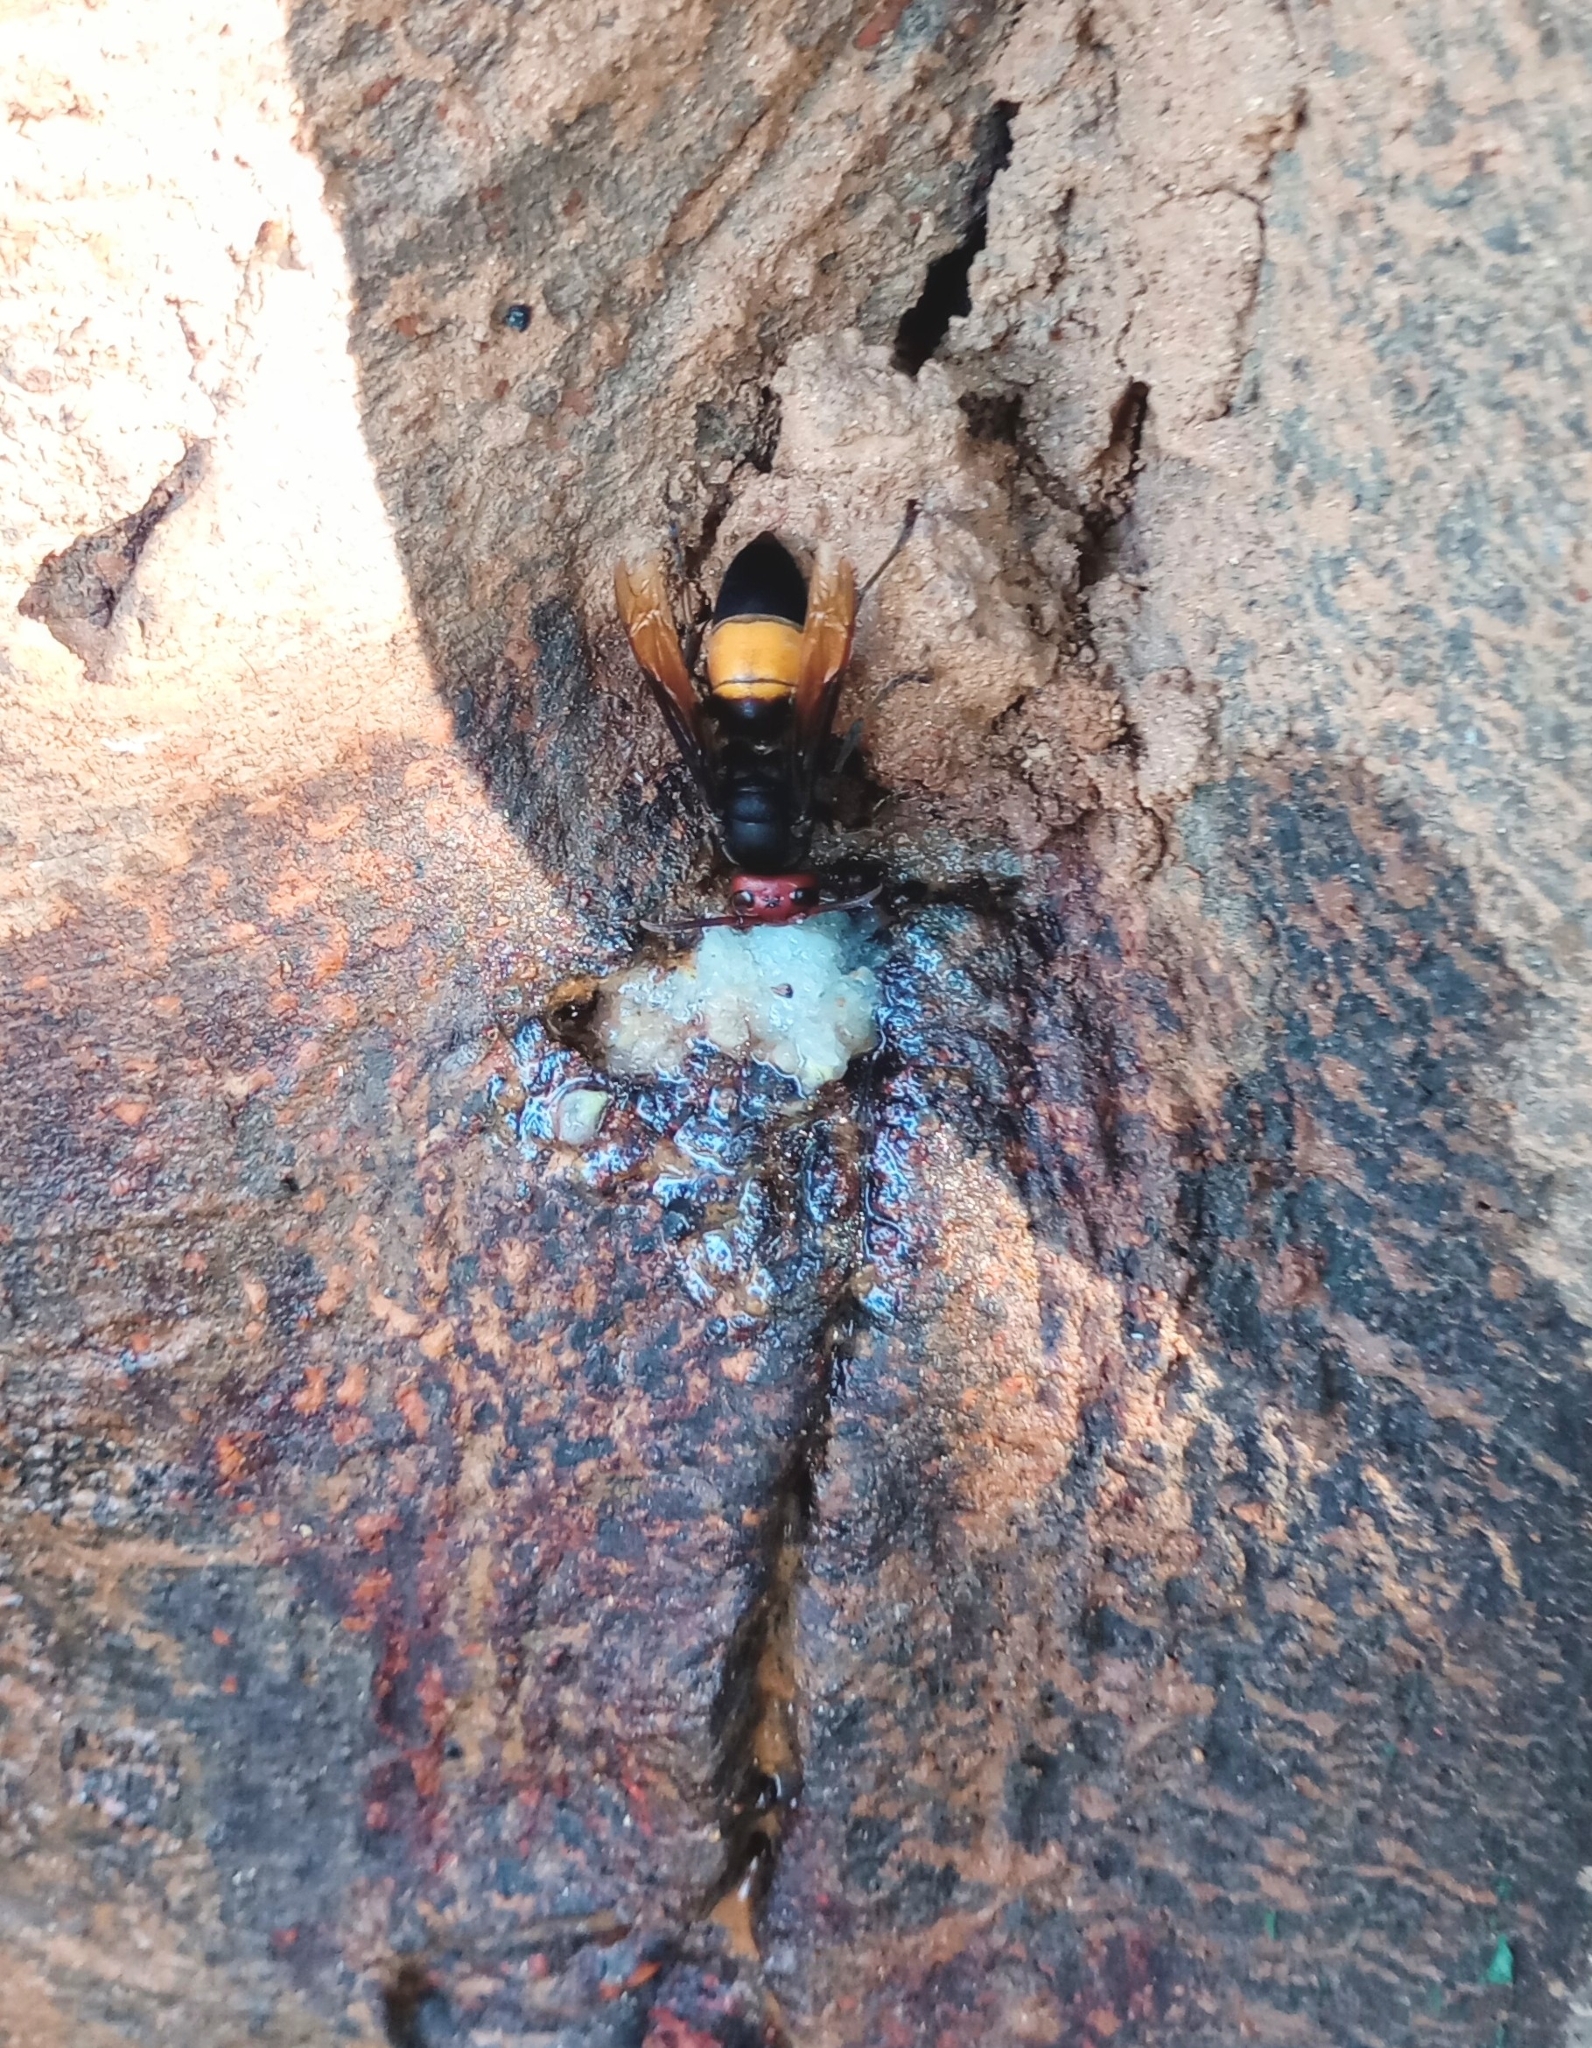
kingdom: Animalia
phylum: Arthropoda
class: Insecta
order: Hymenoptera
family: Vespidae
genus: Vespa
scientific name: Vespa tropica
